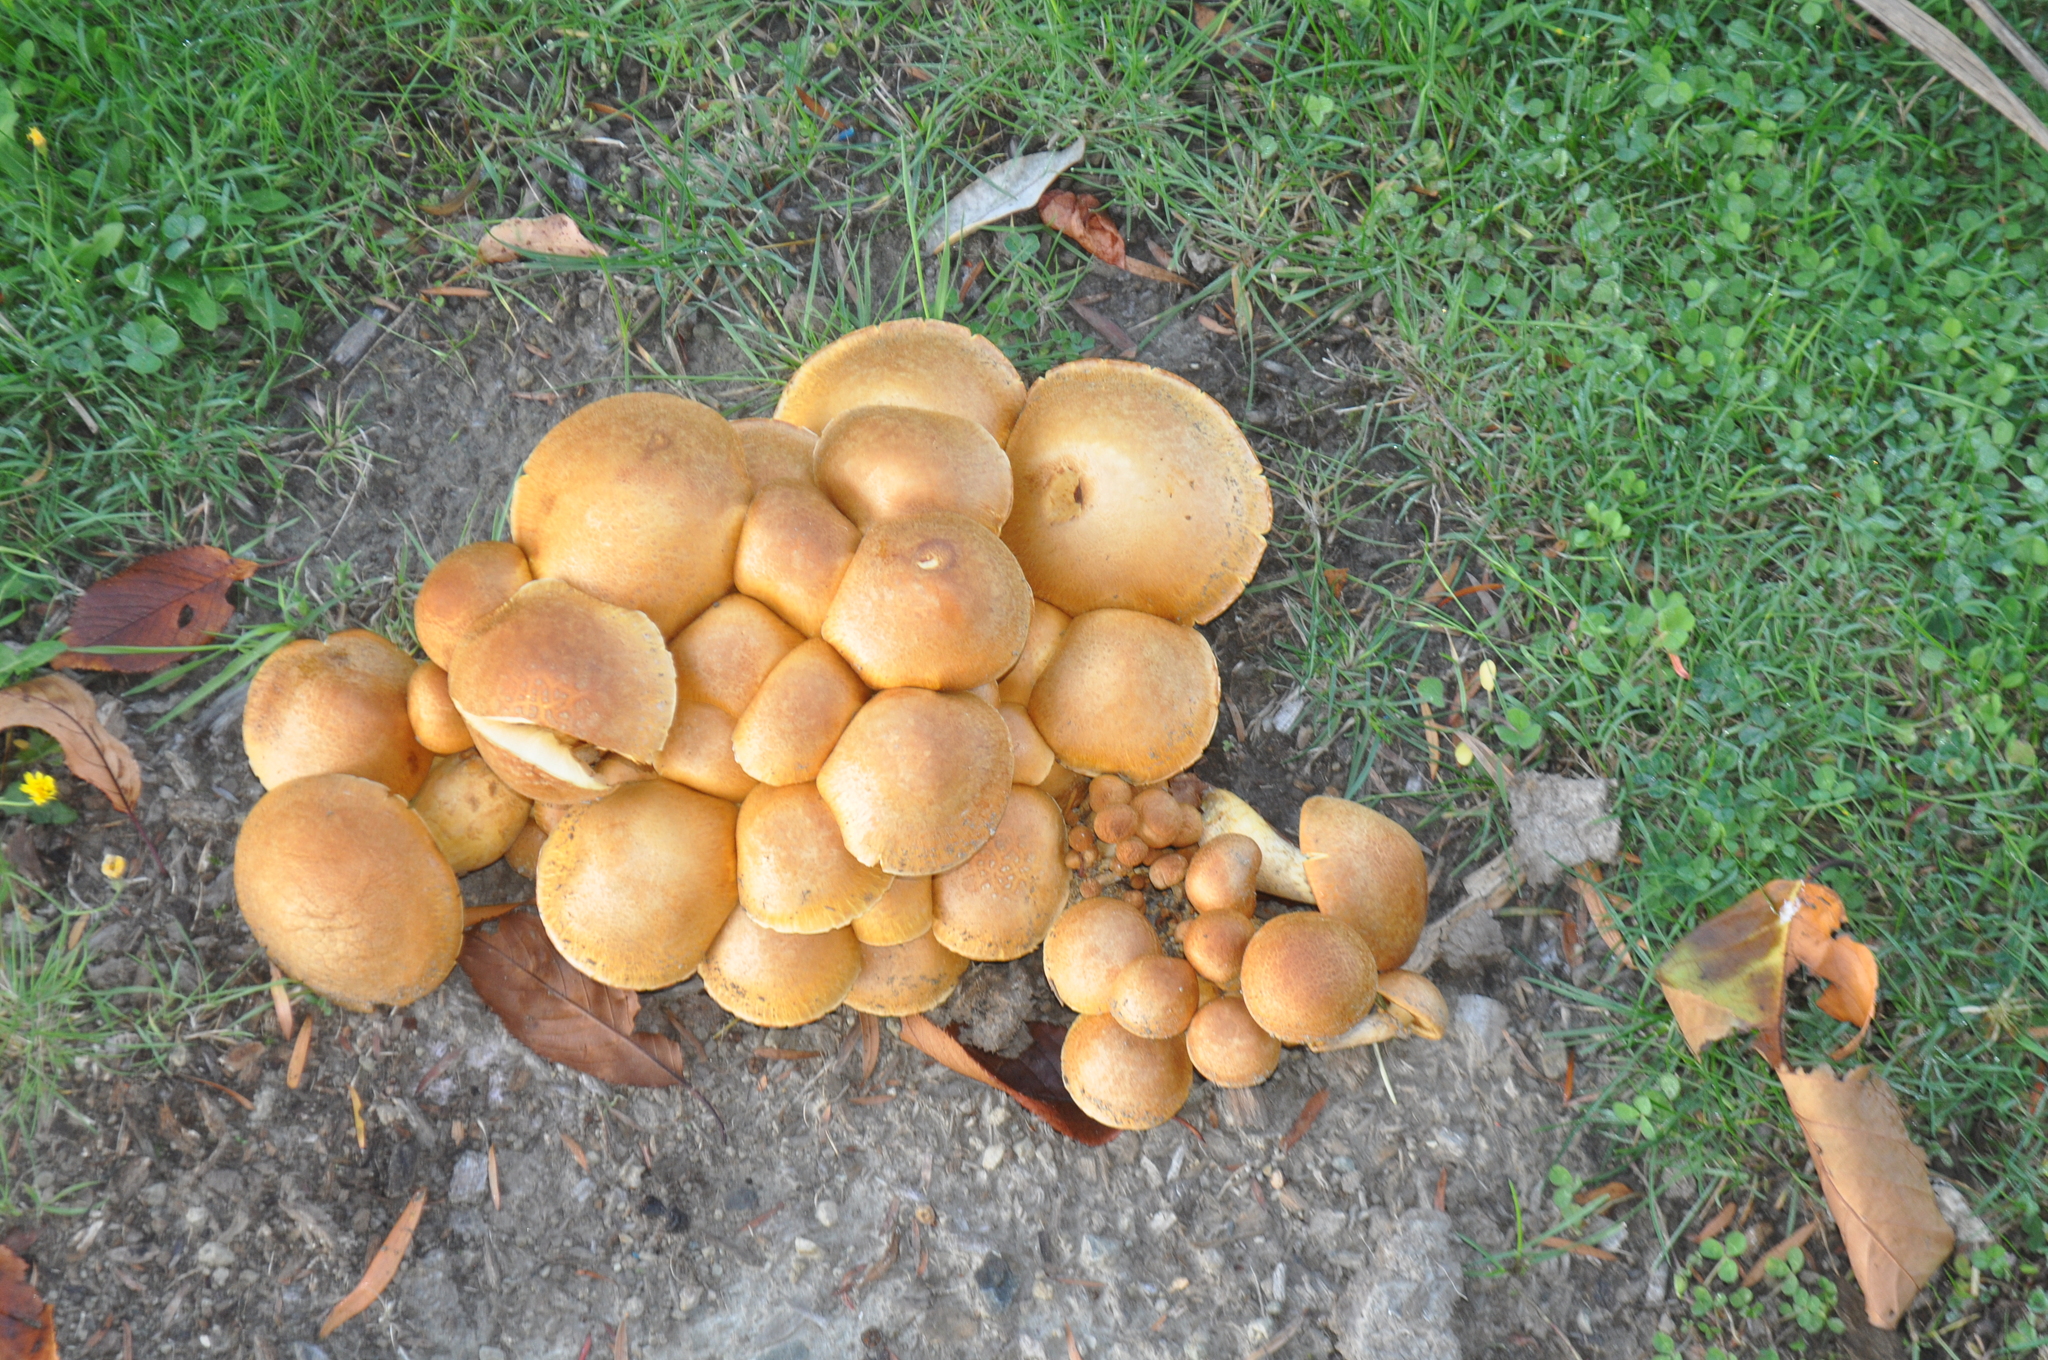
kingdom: Fungi
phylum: Basidiomycota
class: Agaricomycetes
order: Agaricales
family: Hymenogastraceae
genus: Gymnopilus
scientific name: Gymnopilus junonius
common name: Spectacular rustgill
